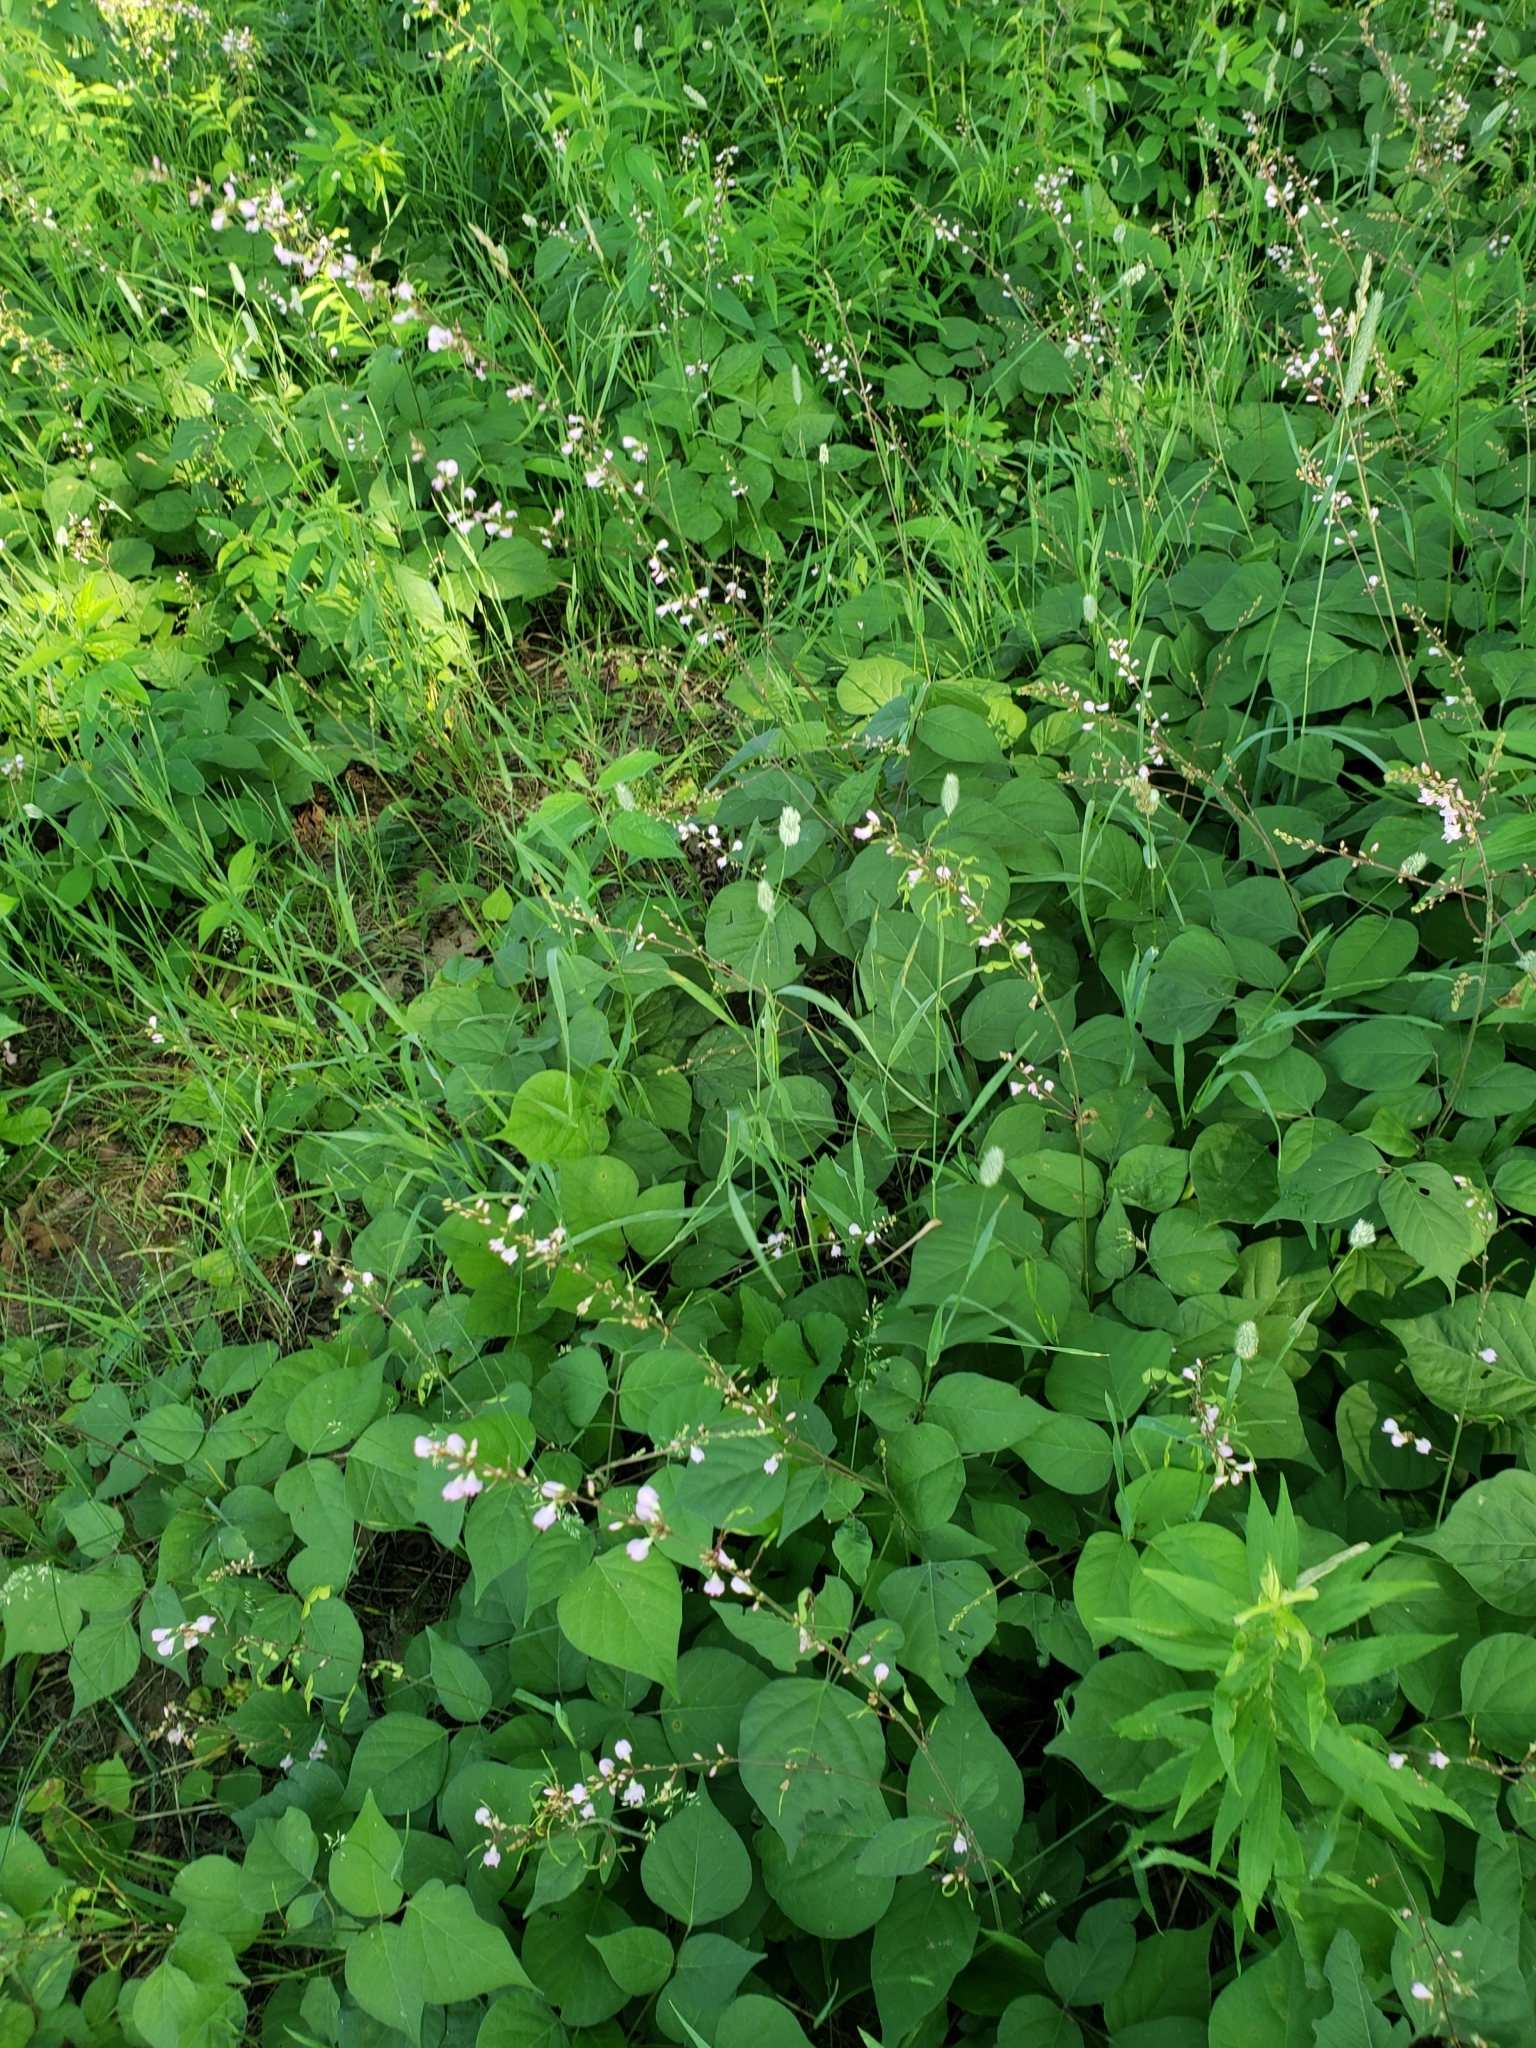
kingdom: Plantae
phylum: Tracheophyta
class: Magnoliopsida
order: Fabales
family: Fabaceae
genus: Hylodesmum
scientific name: Hylodesmum glutinosum
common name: Clustered-leaved tick-trefoil
